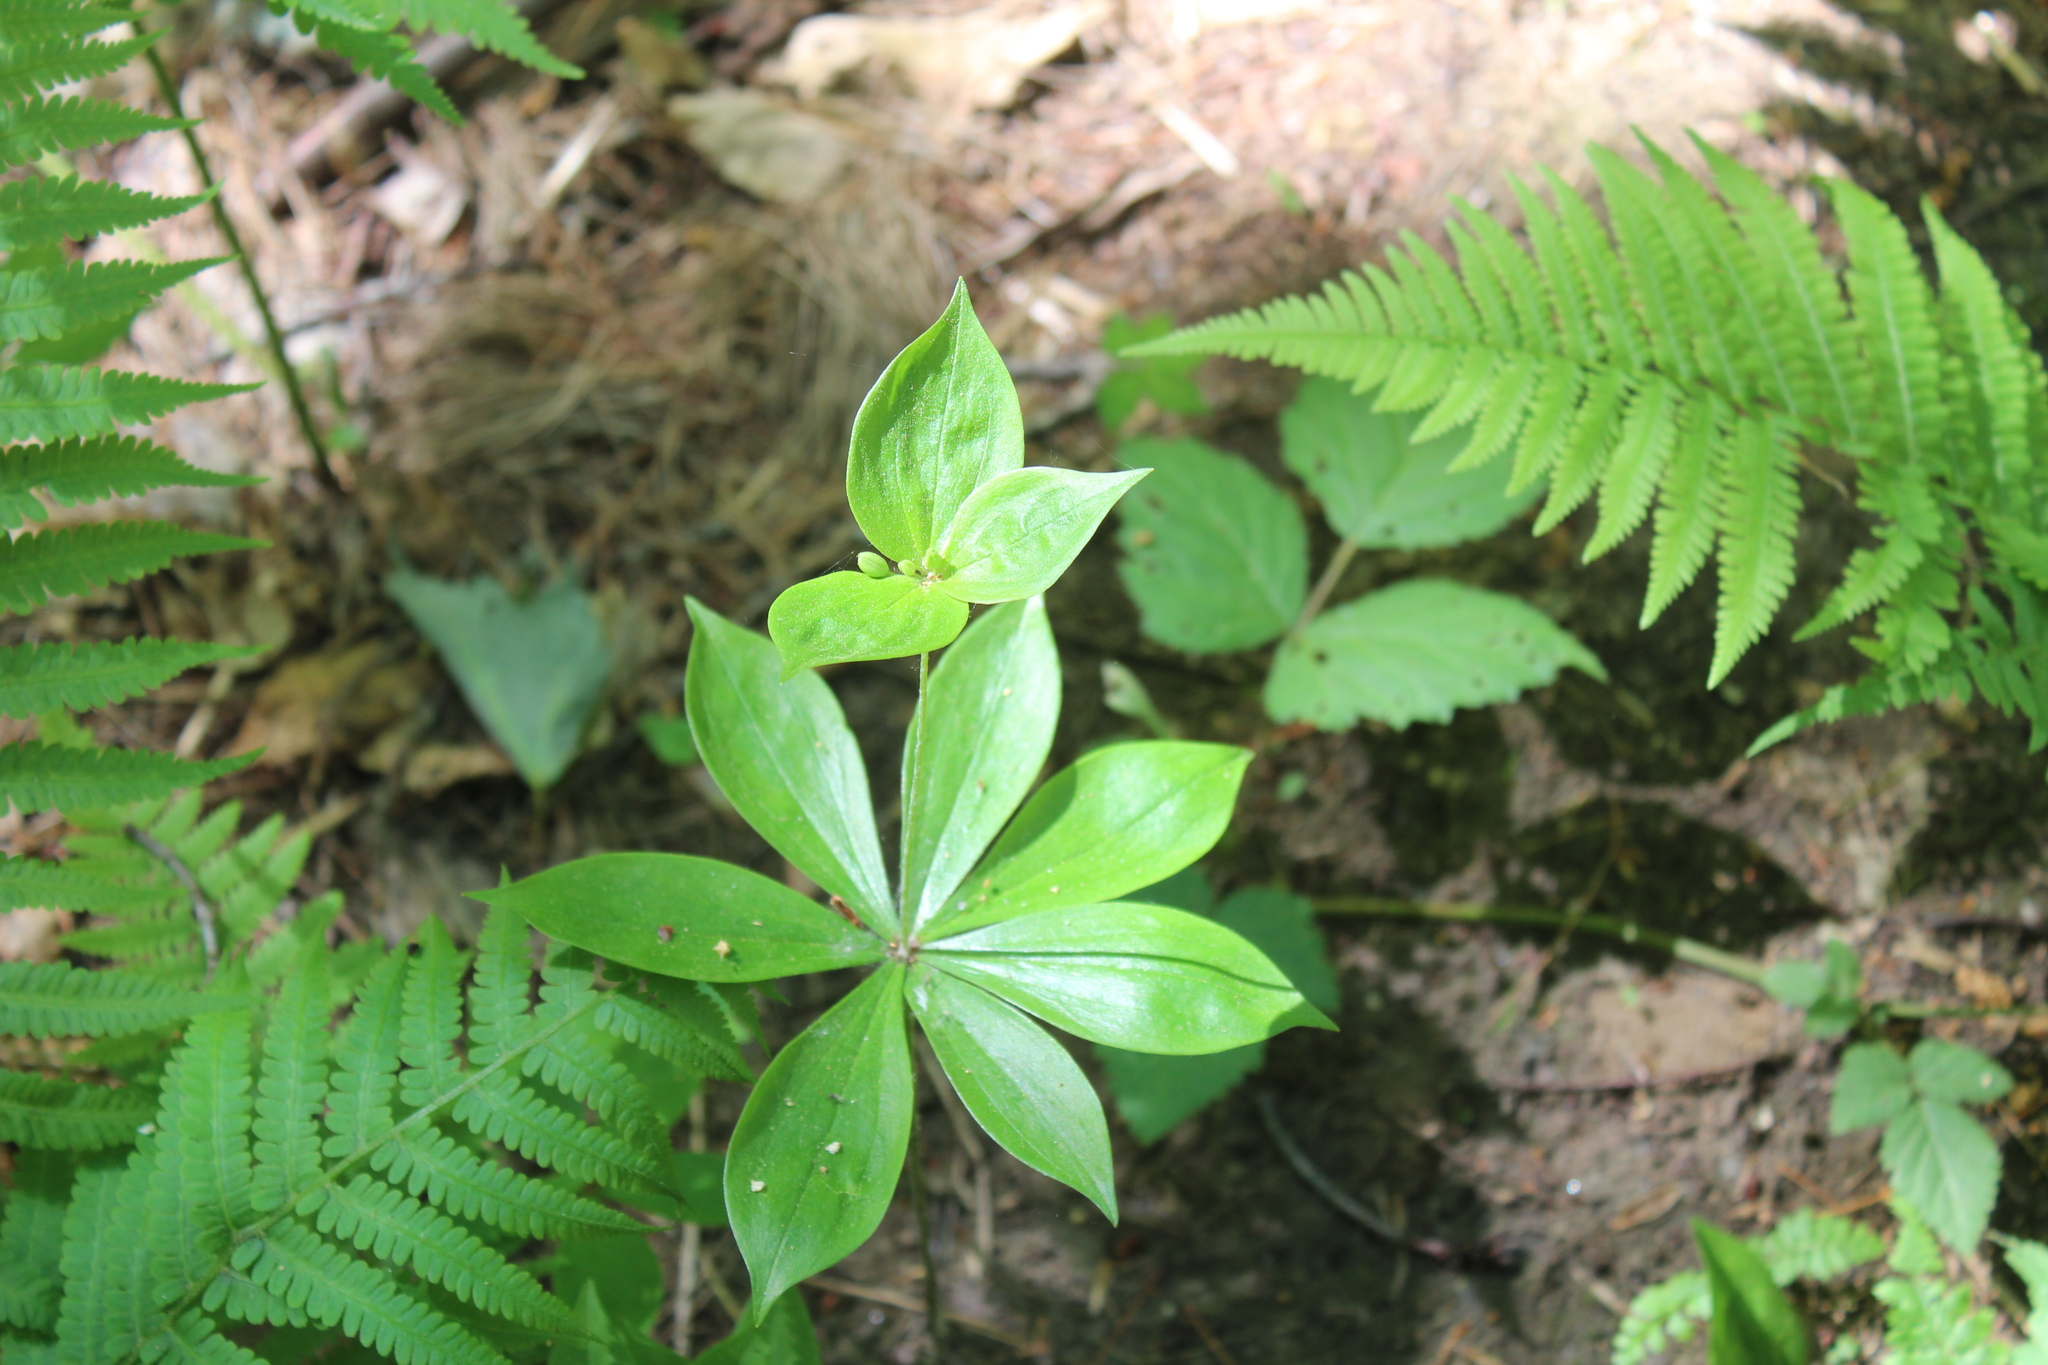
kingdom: Plantae
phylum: Tracheophyta
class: Liliopsida
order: Liliales
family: Liliaceae
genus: Medeola
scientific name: Medeola virginiana
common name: Indian cucumber-root
